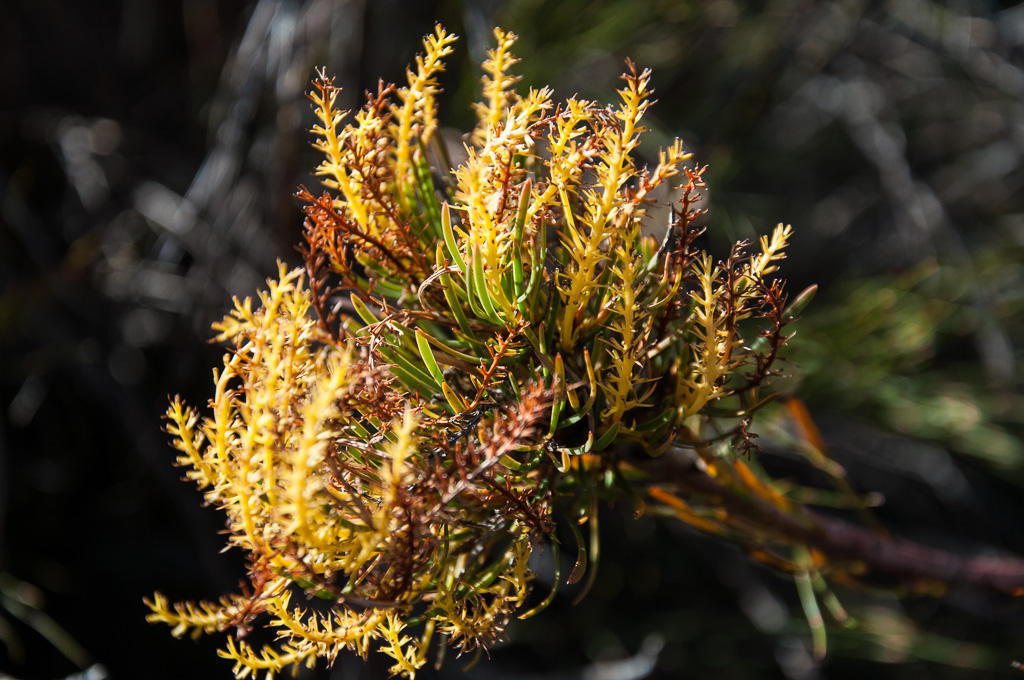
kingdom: Plantae
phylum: Tracheophyta
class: Magnoliopsida
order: Proteales
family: Proteaceae
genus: Aulax
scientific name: Aulax pallasia
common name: Needle-leaf featherbush
